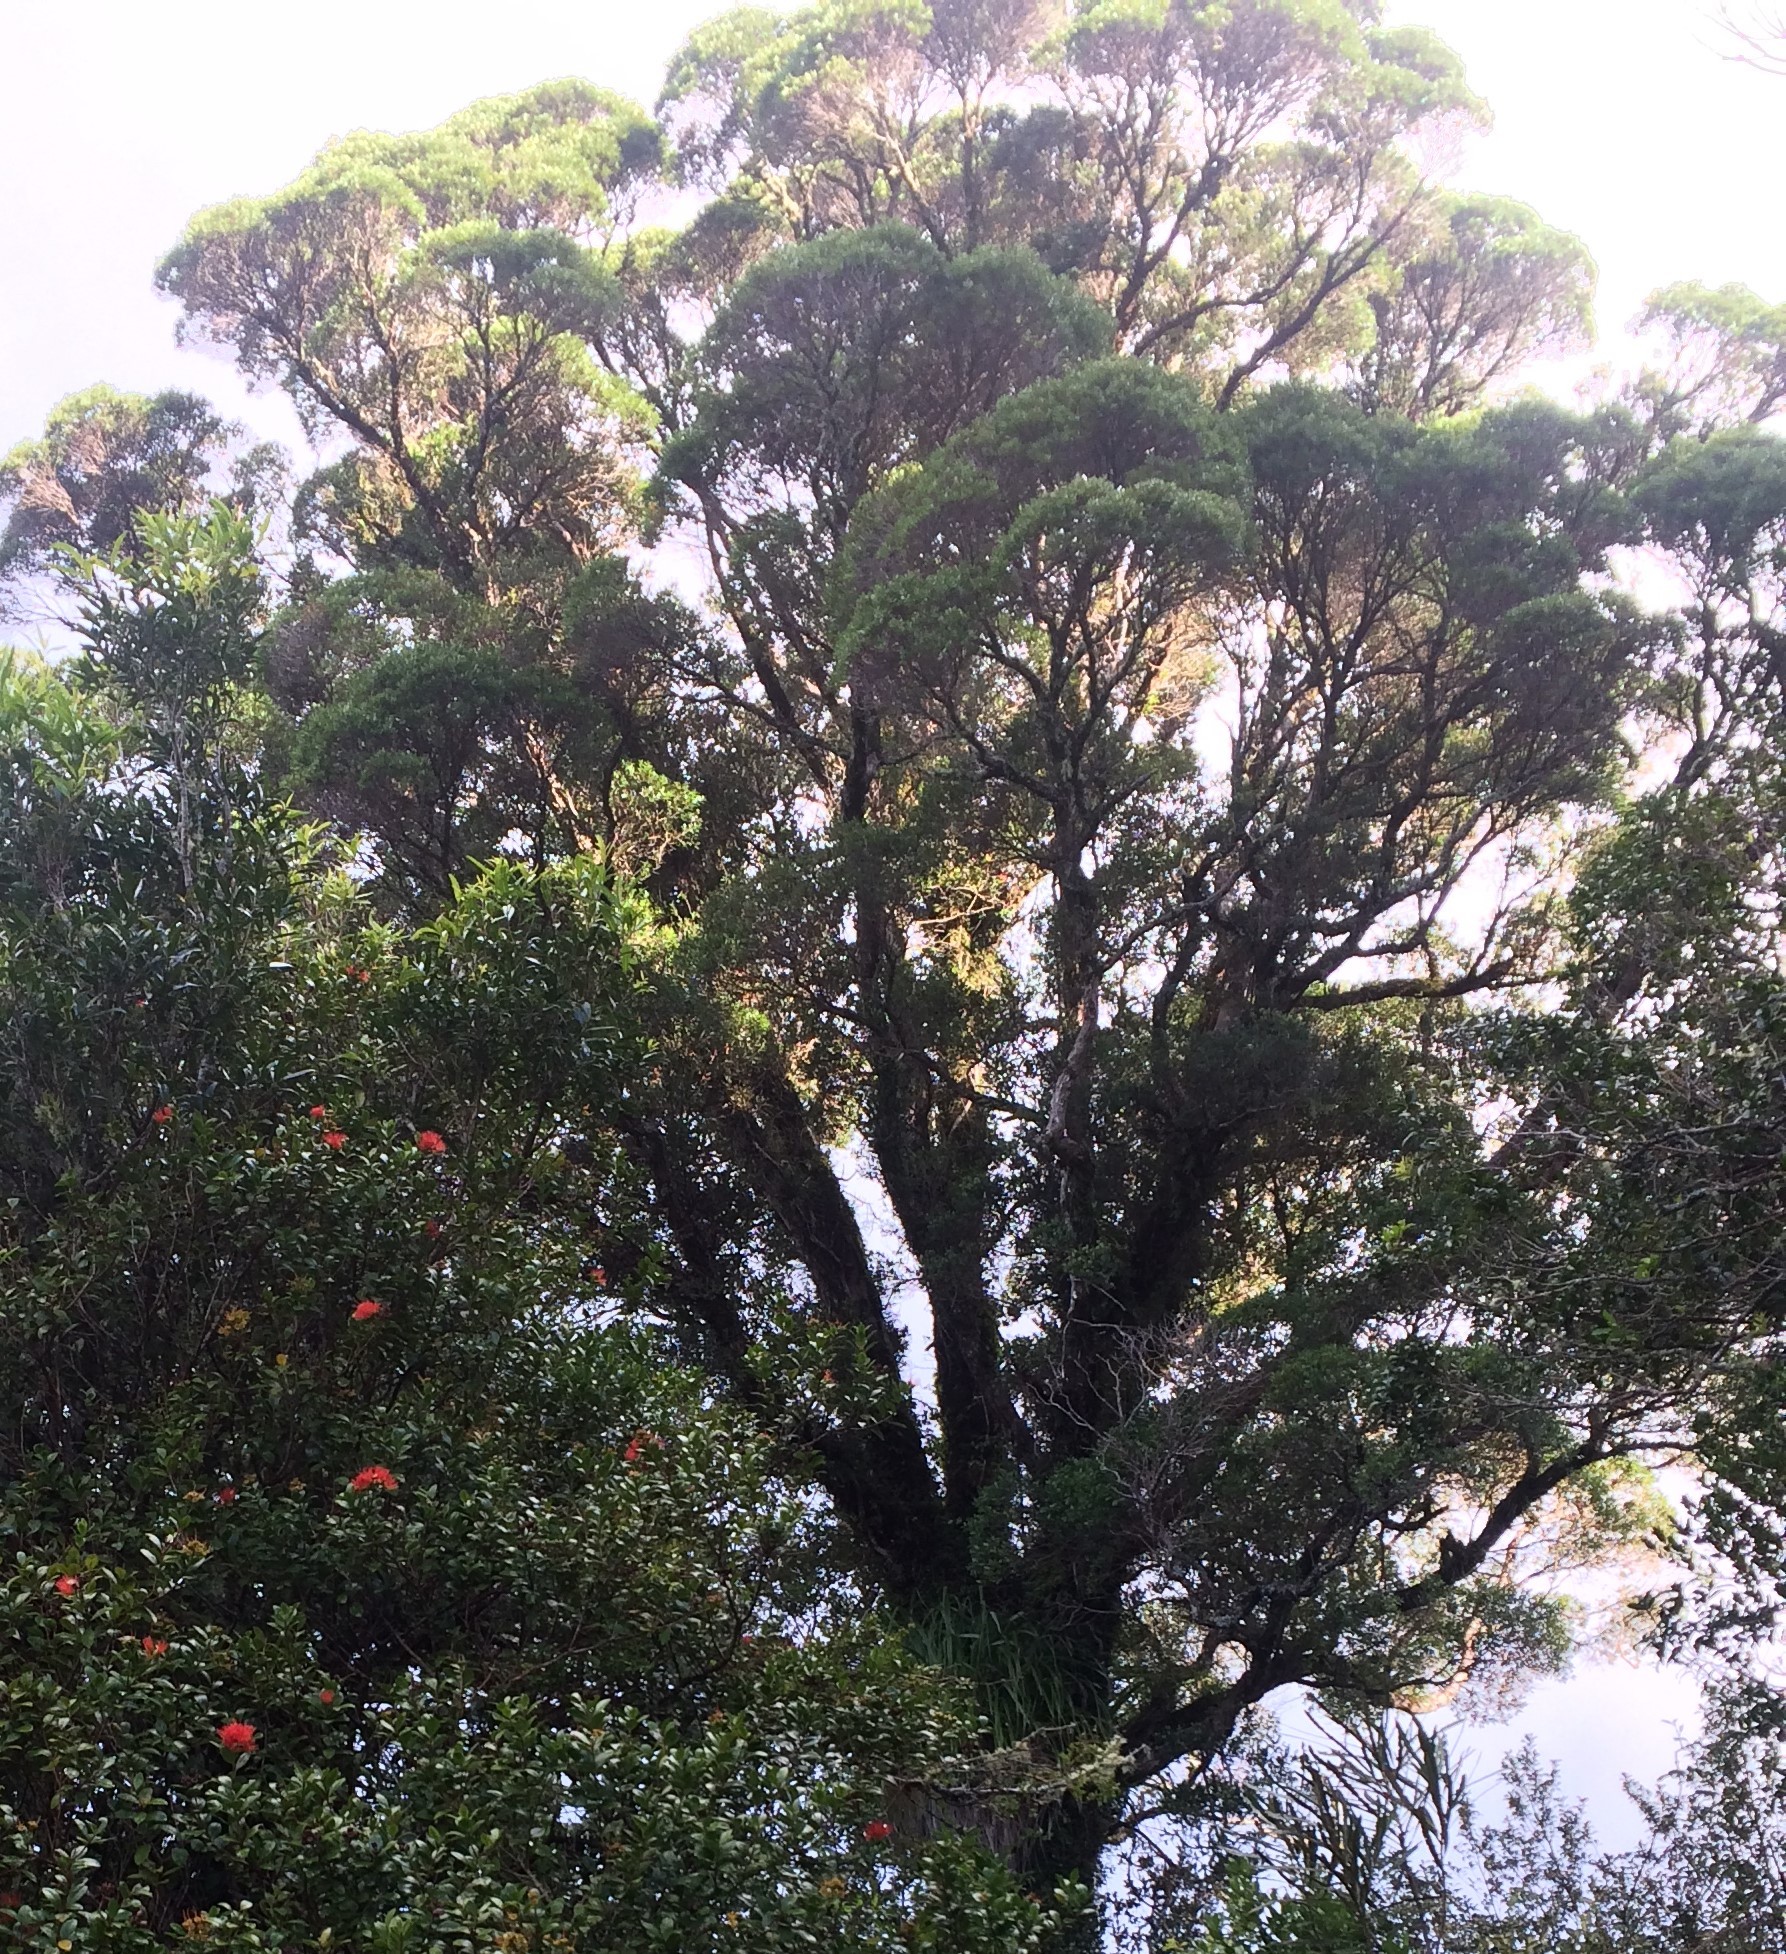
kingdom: Plantae
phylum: Tracheophyta
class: Magnoliopsida
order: Myrtales
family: Myrtaceae
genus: Metrosideros
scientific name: Metrosideros robusta
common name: Northern rata
